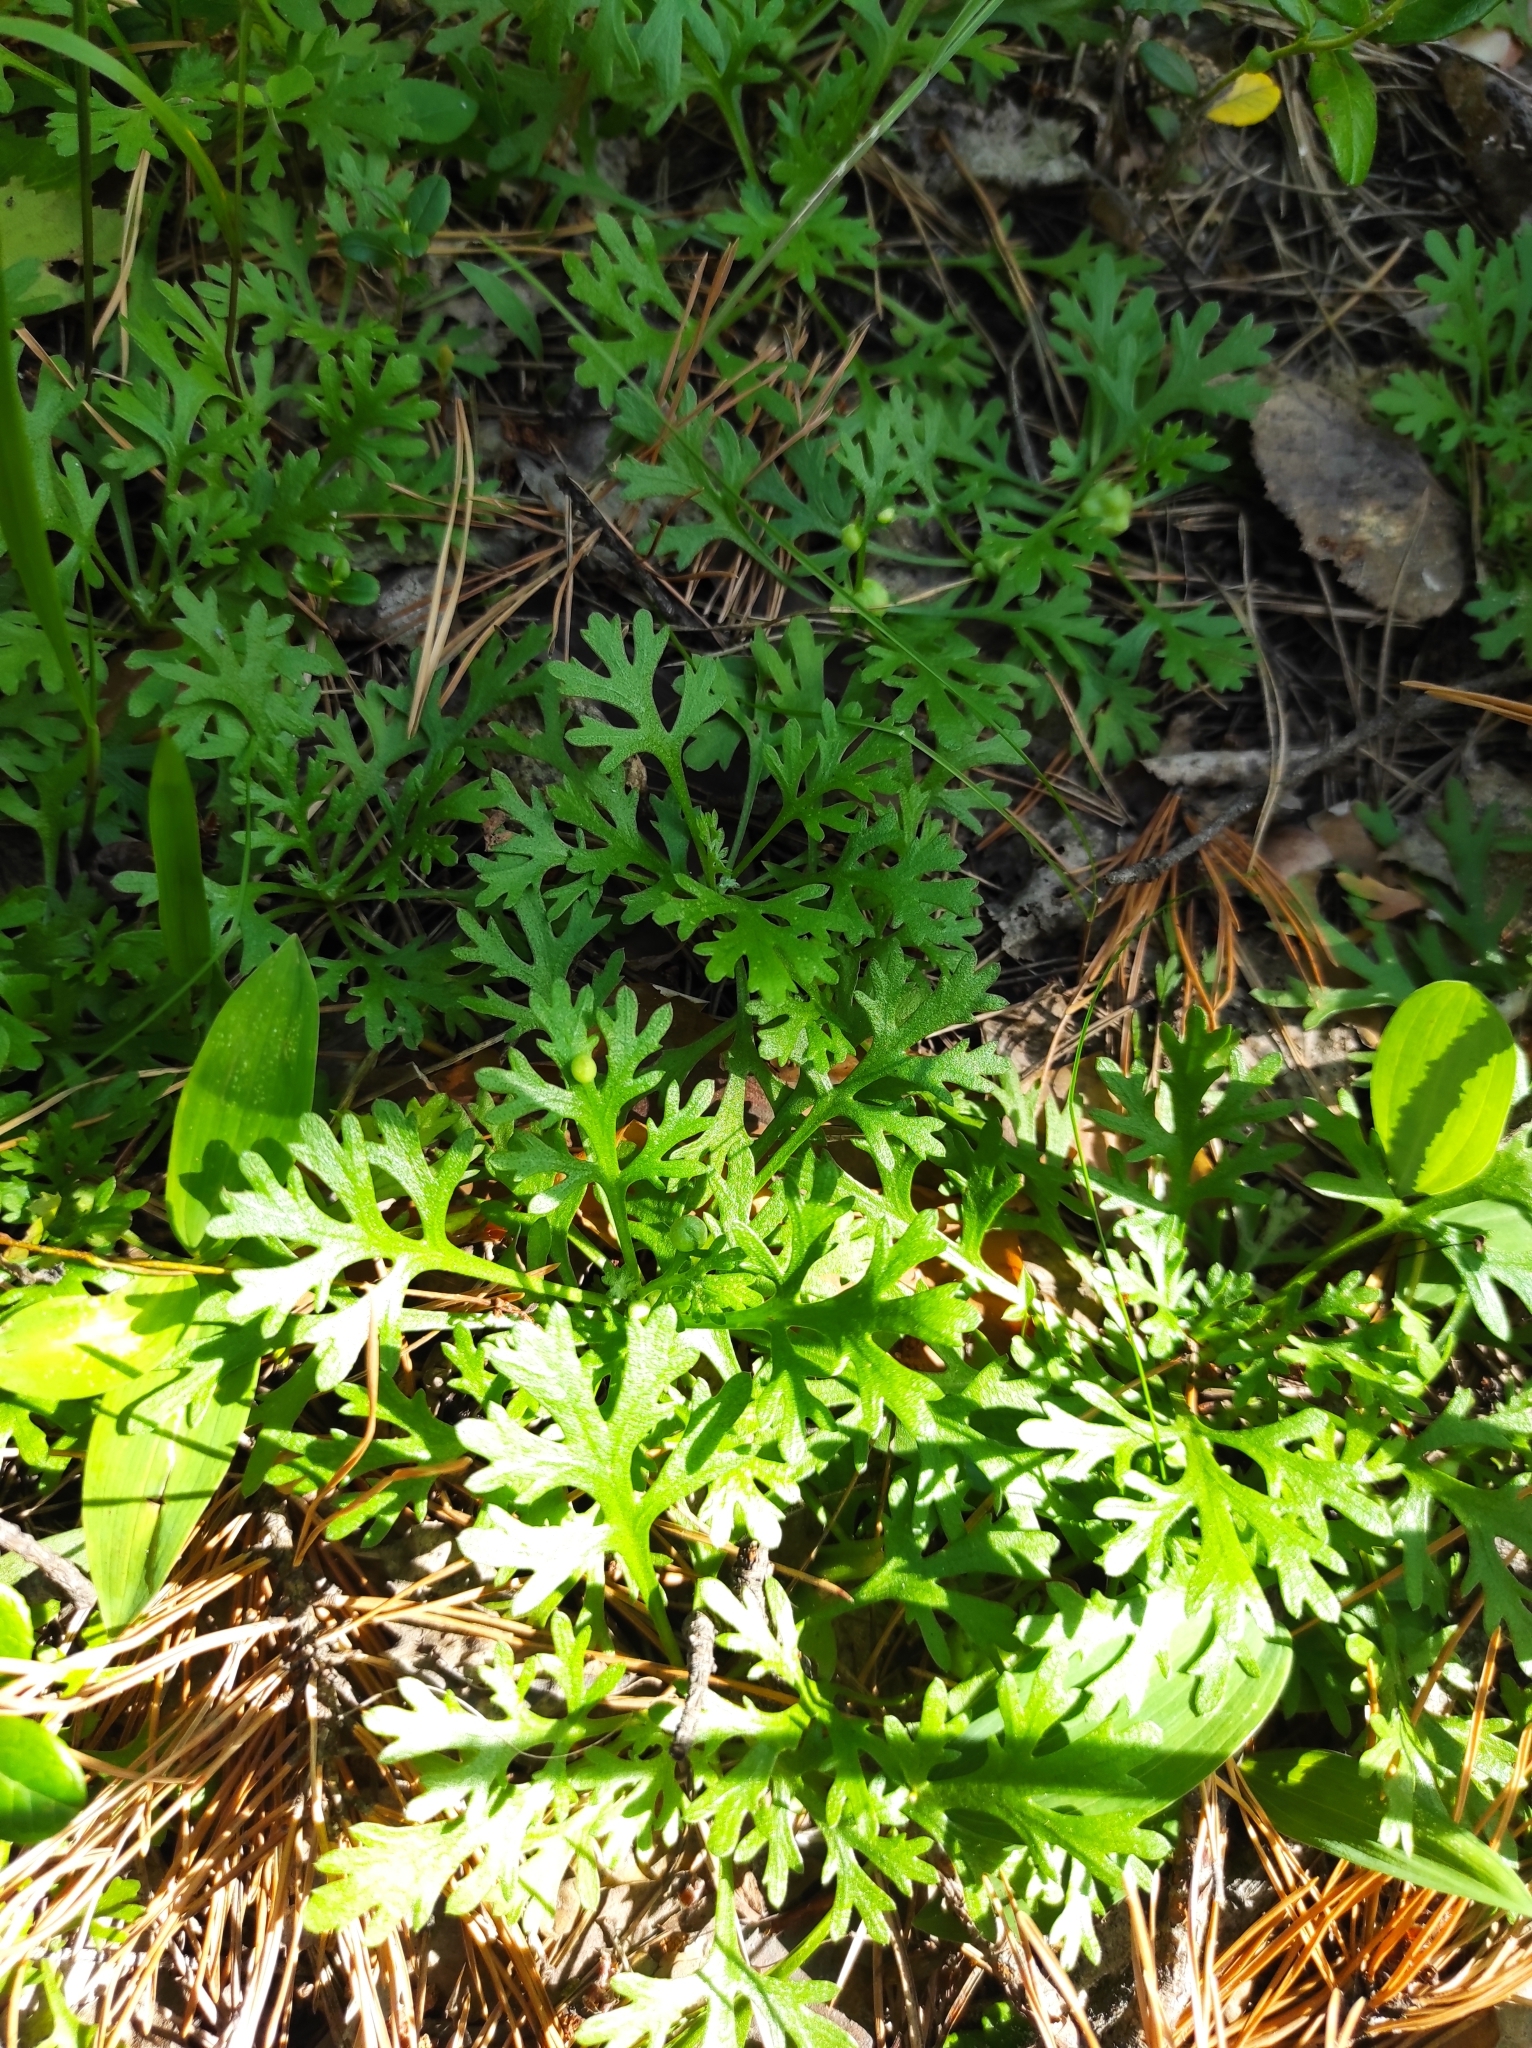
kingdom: Plantae
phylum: Tracheophyta
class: Magnoliopsida
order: Asterales
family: Asteraceae
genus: Chrysanthemum
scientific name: Chrysanthemum zawadzkii
